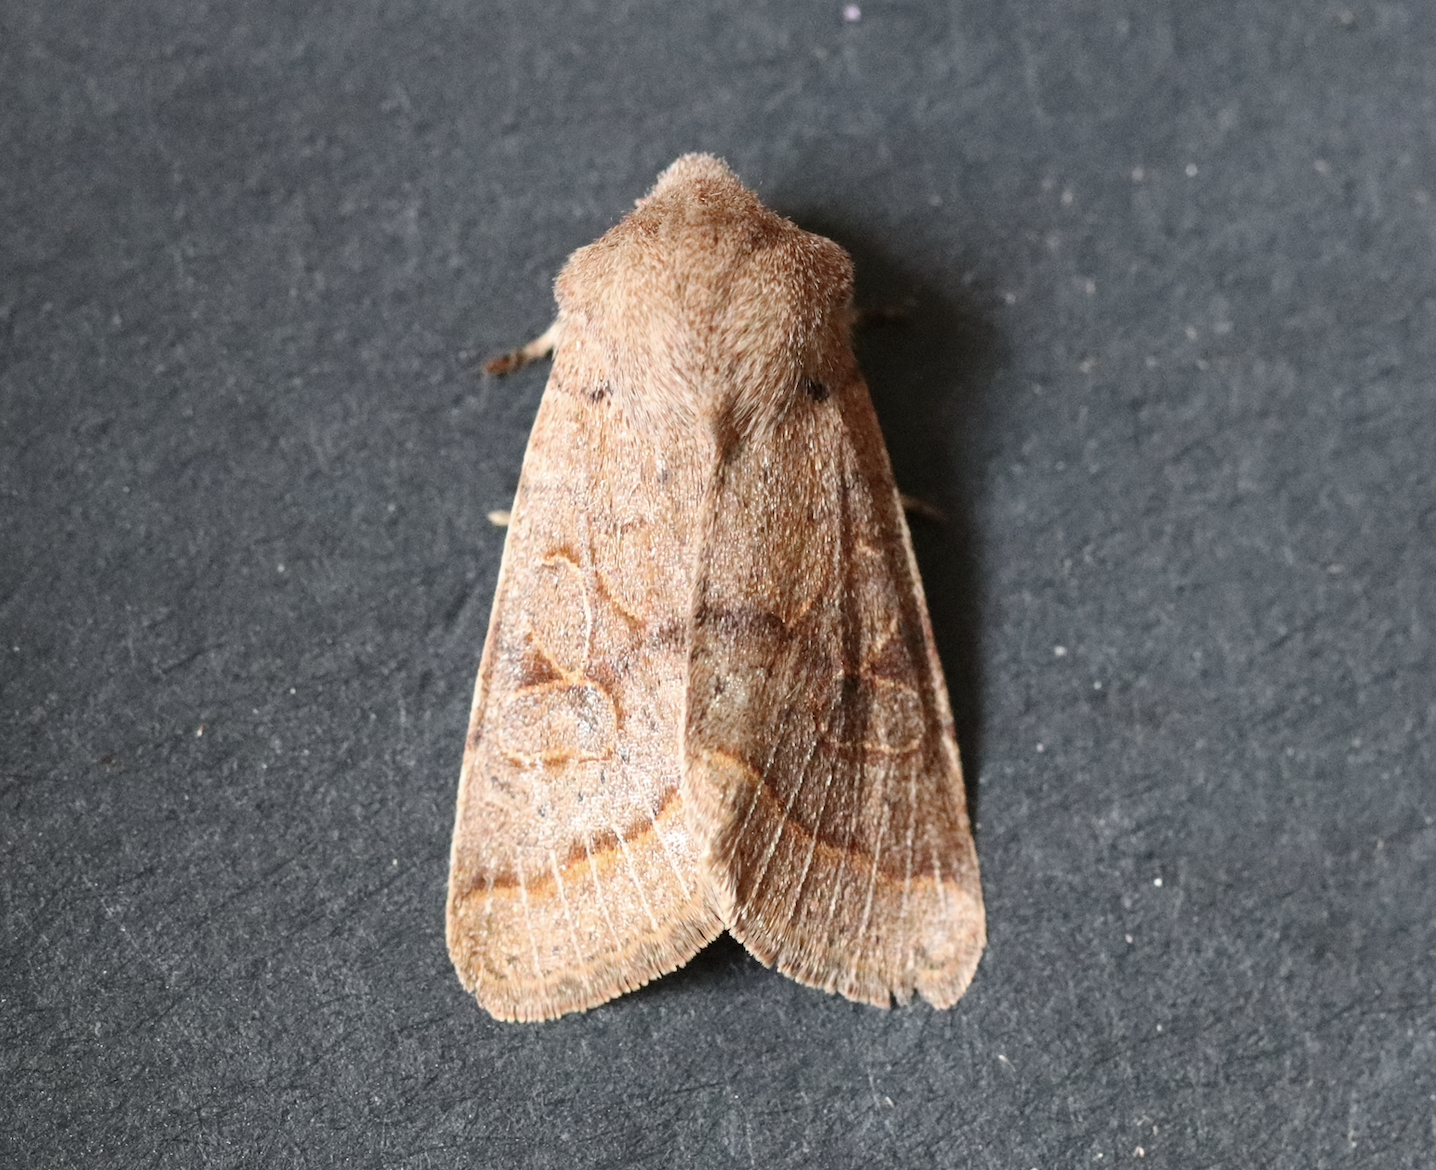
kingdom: Animalia
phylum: Arthropoda
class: Insecta
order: Lepidoptera
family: Noctuidae
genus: Orthosia
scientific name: Orthosia cerasi
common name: Common quaker
